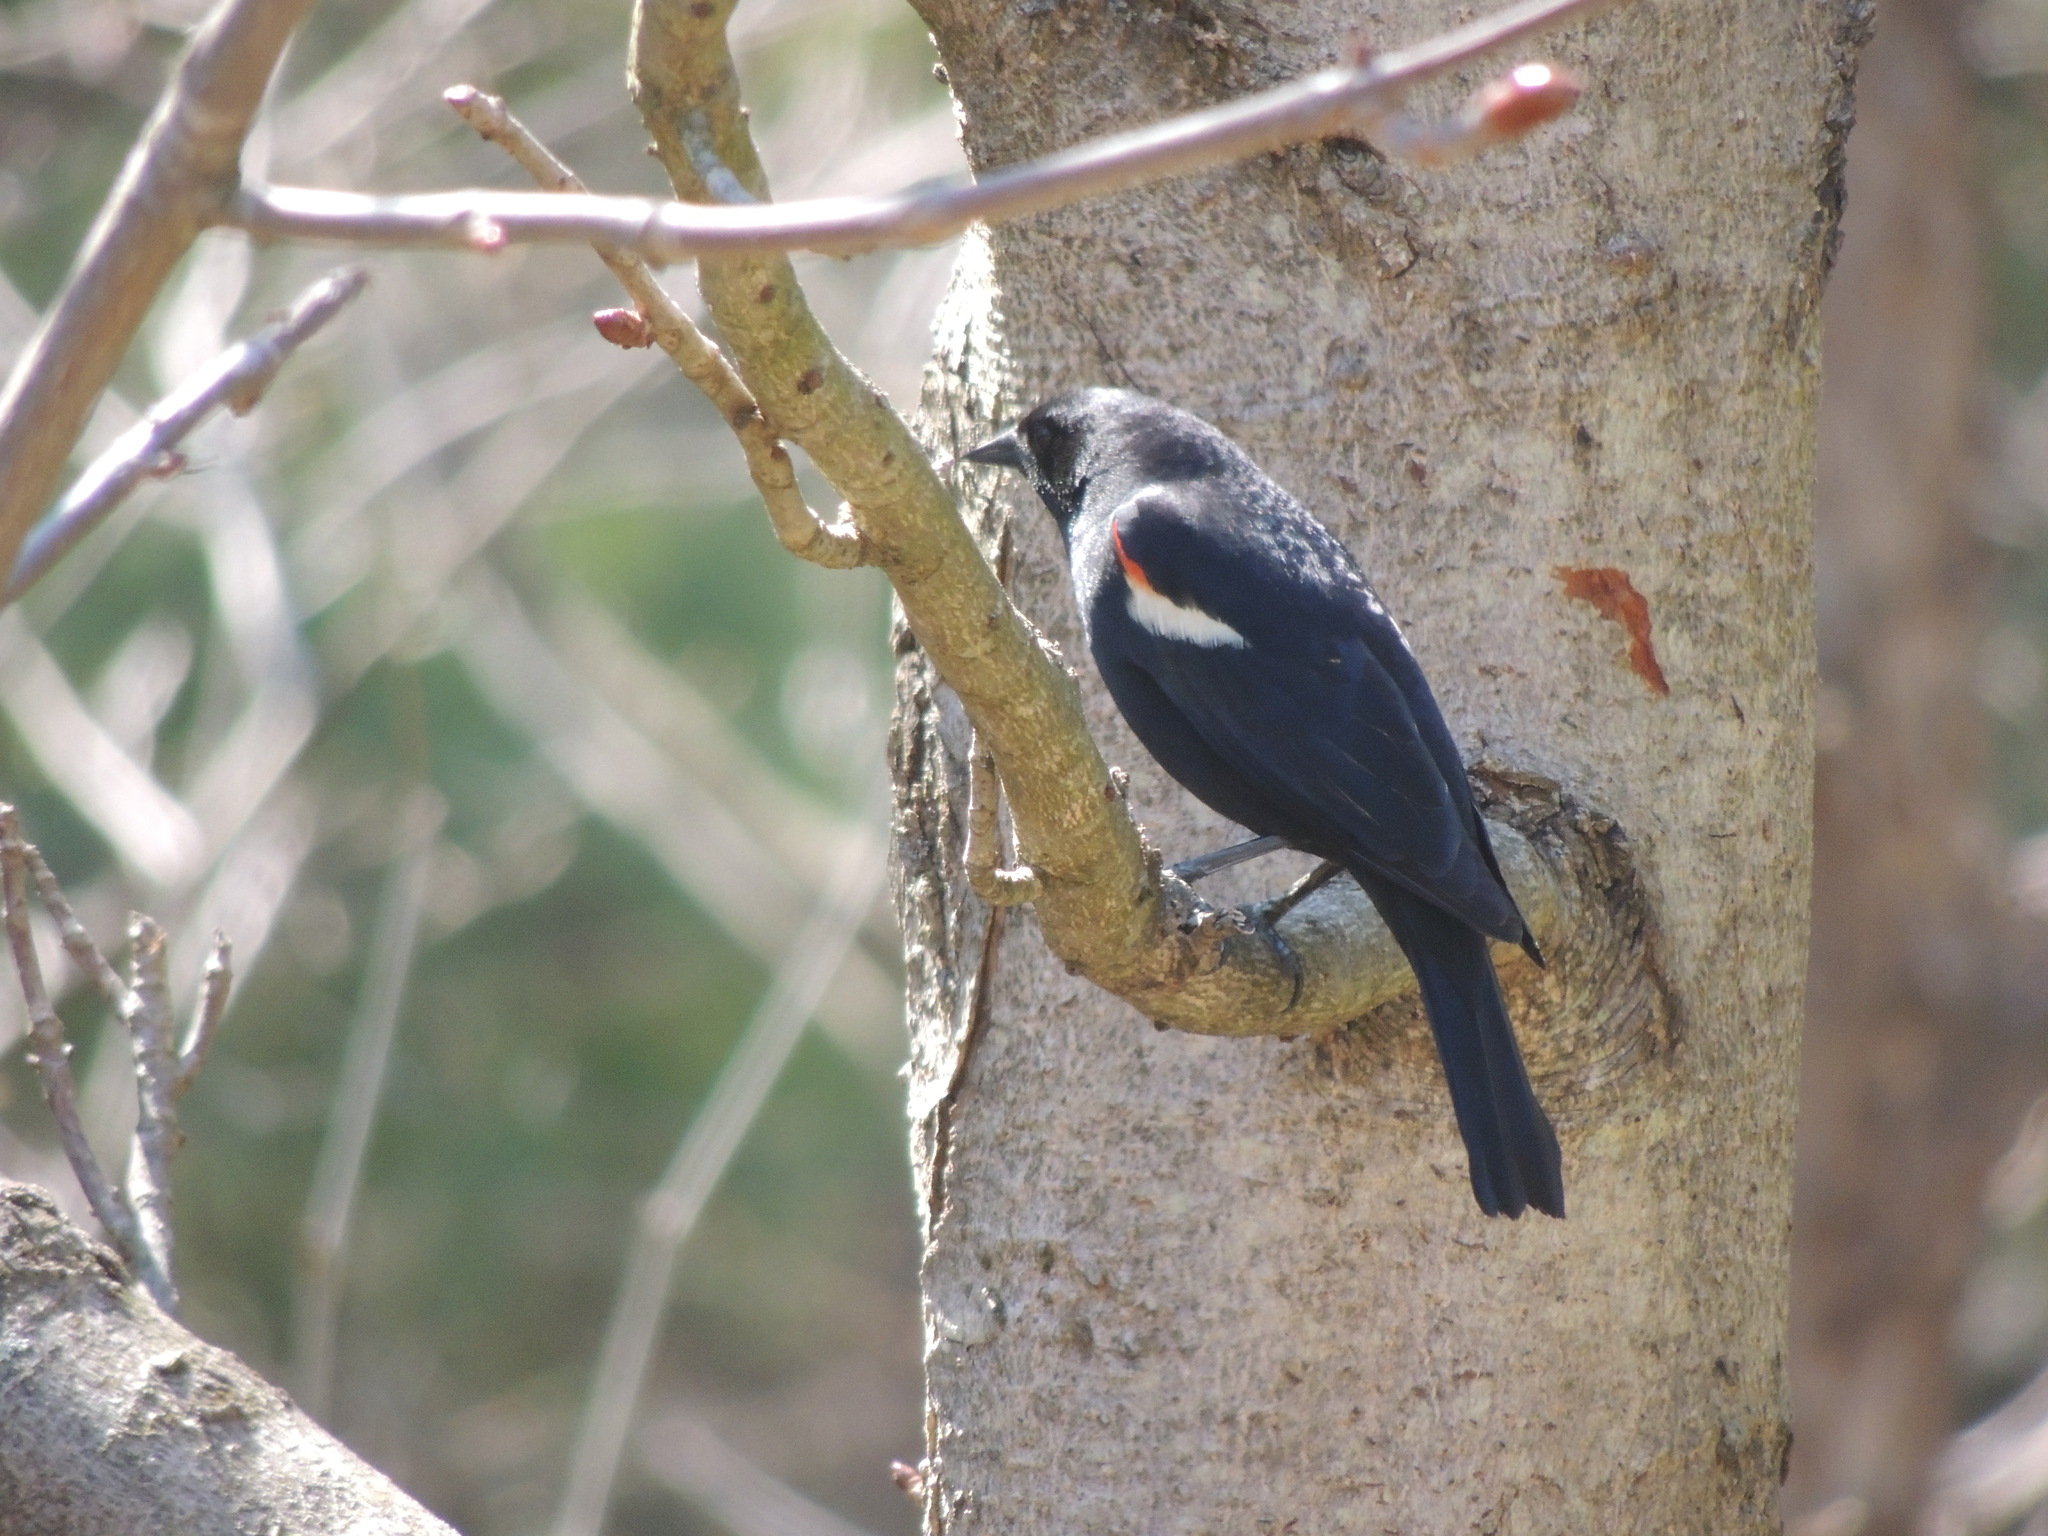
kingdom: Animalia
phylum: Chordata
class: Aves
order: Passeriformes
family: Icteridae
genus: Agelaius
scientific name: Agelaius phoeniceus
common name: Red-winged blackbird
